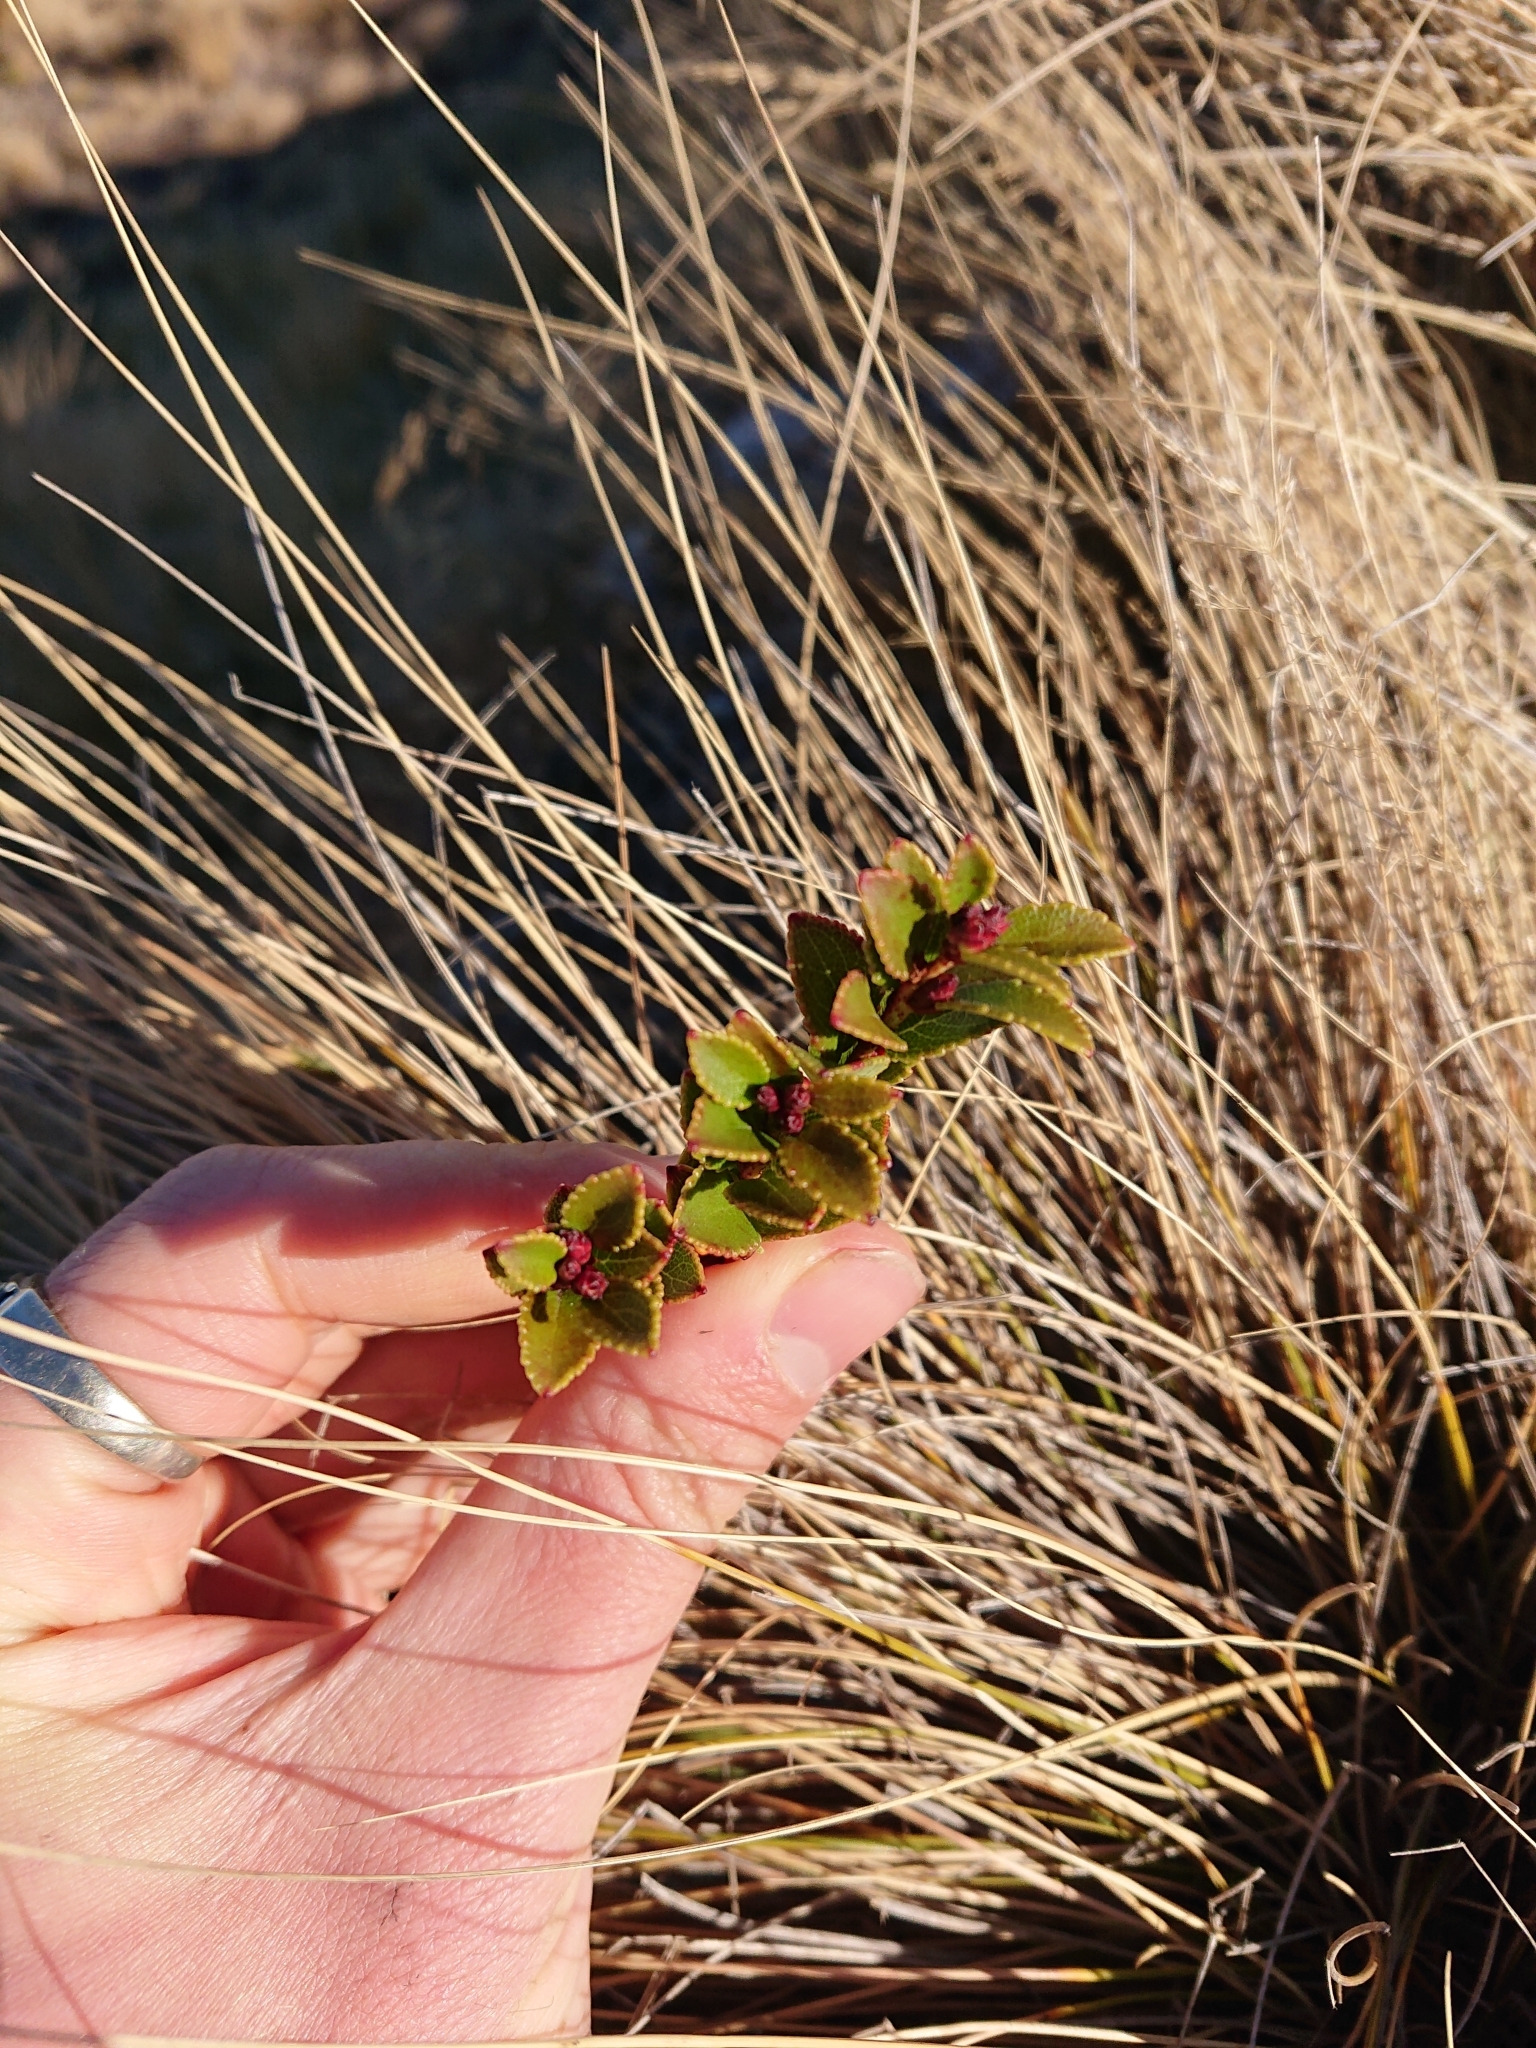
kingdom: Plantae
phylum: Tracheophyta
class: Magnoliopsida
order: Ericales
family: Ericaceae
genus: Gaultheria
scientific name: Gaultheria crassa
